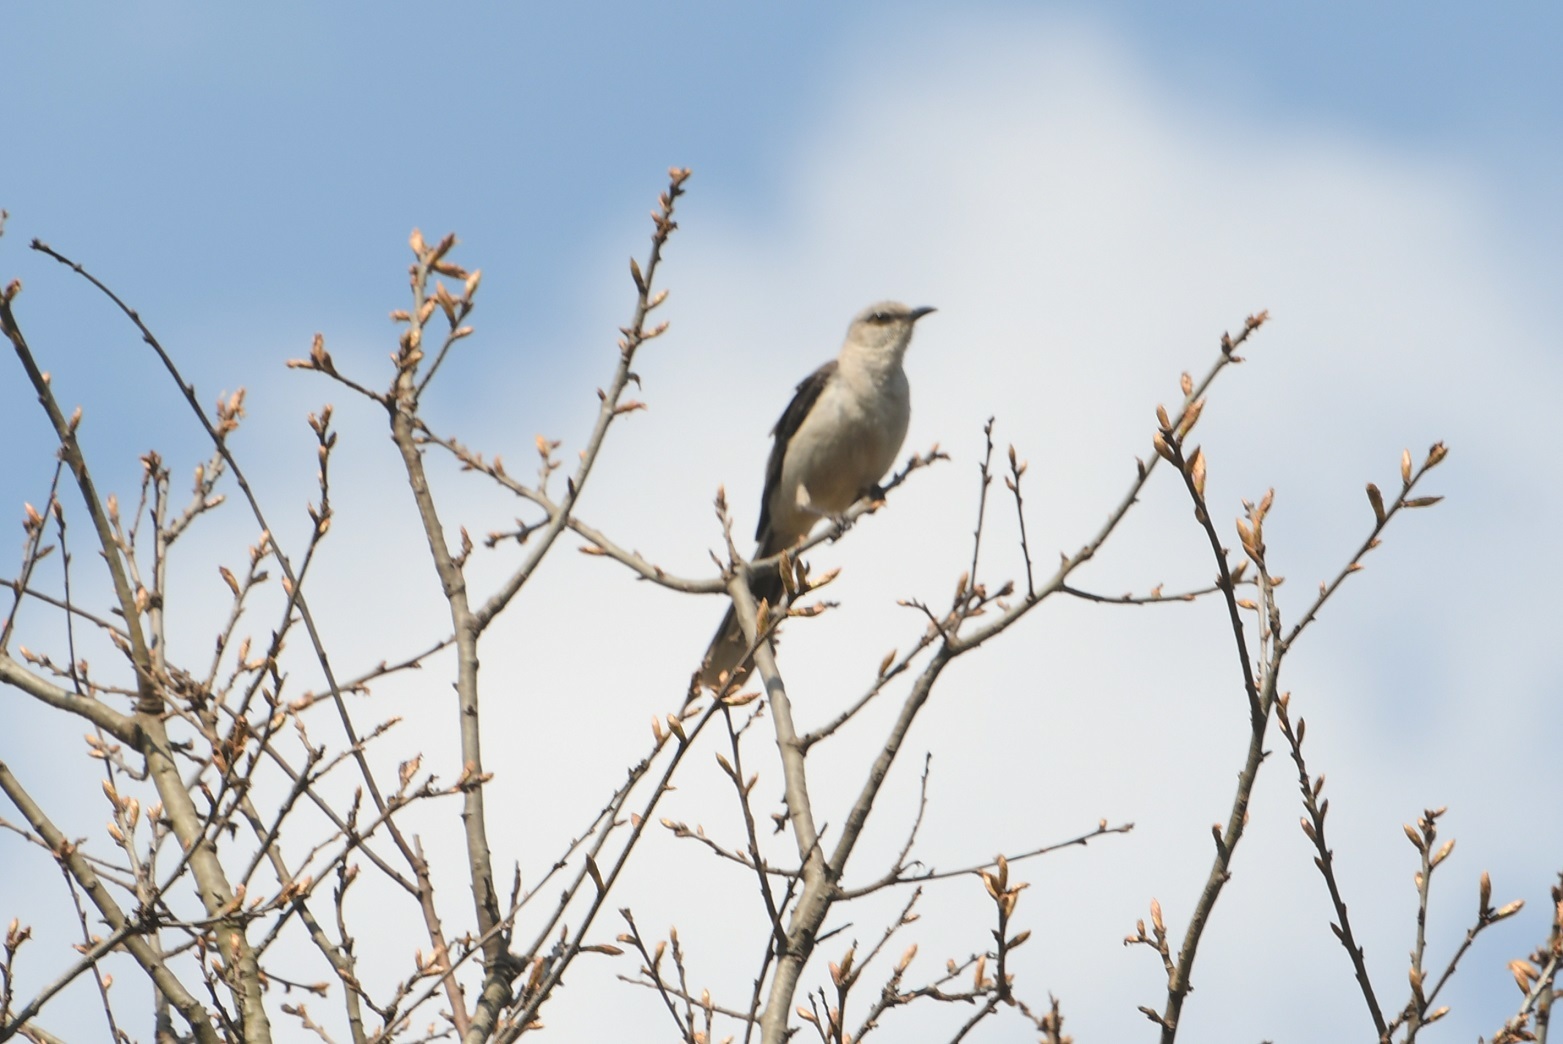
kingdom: Animalia
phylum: Chordata
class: Aves
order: Passeriformes
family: Mimidae
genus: Mimus
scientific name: Mimus gilvus
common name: Tropical mockingbird
